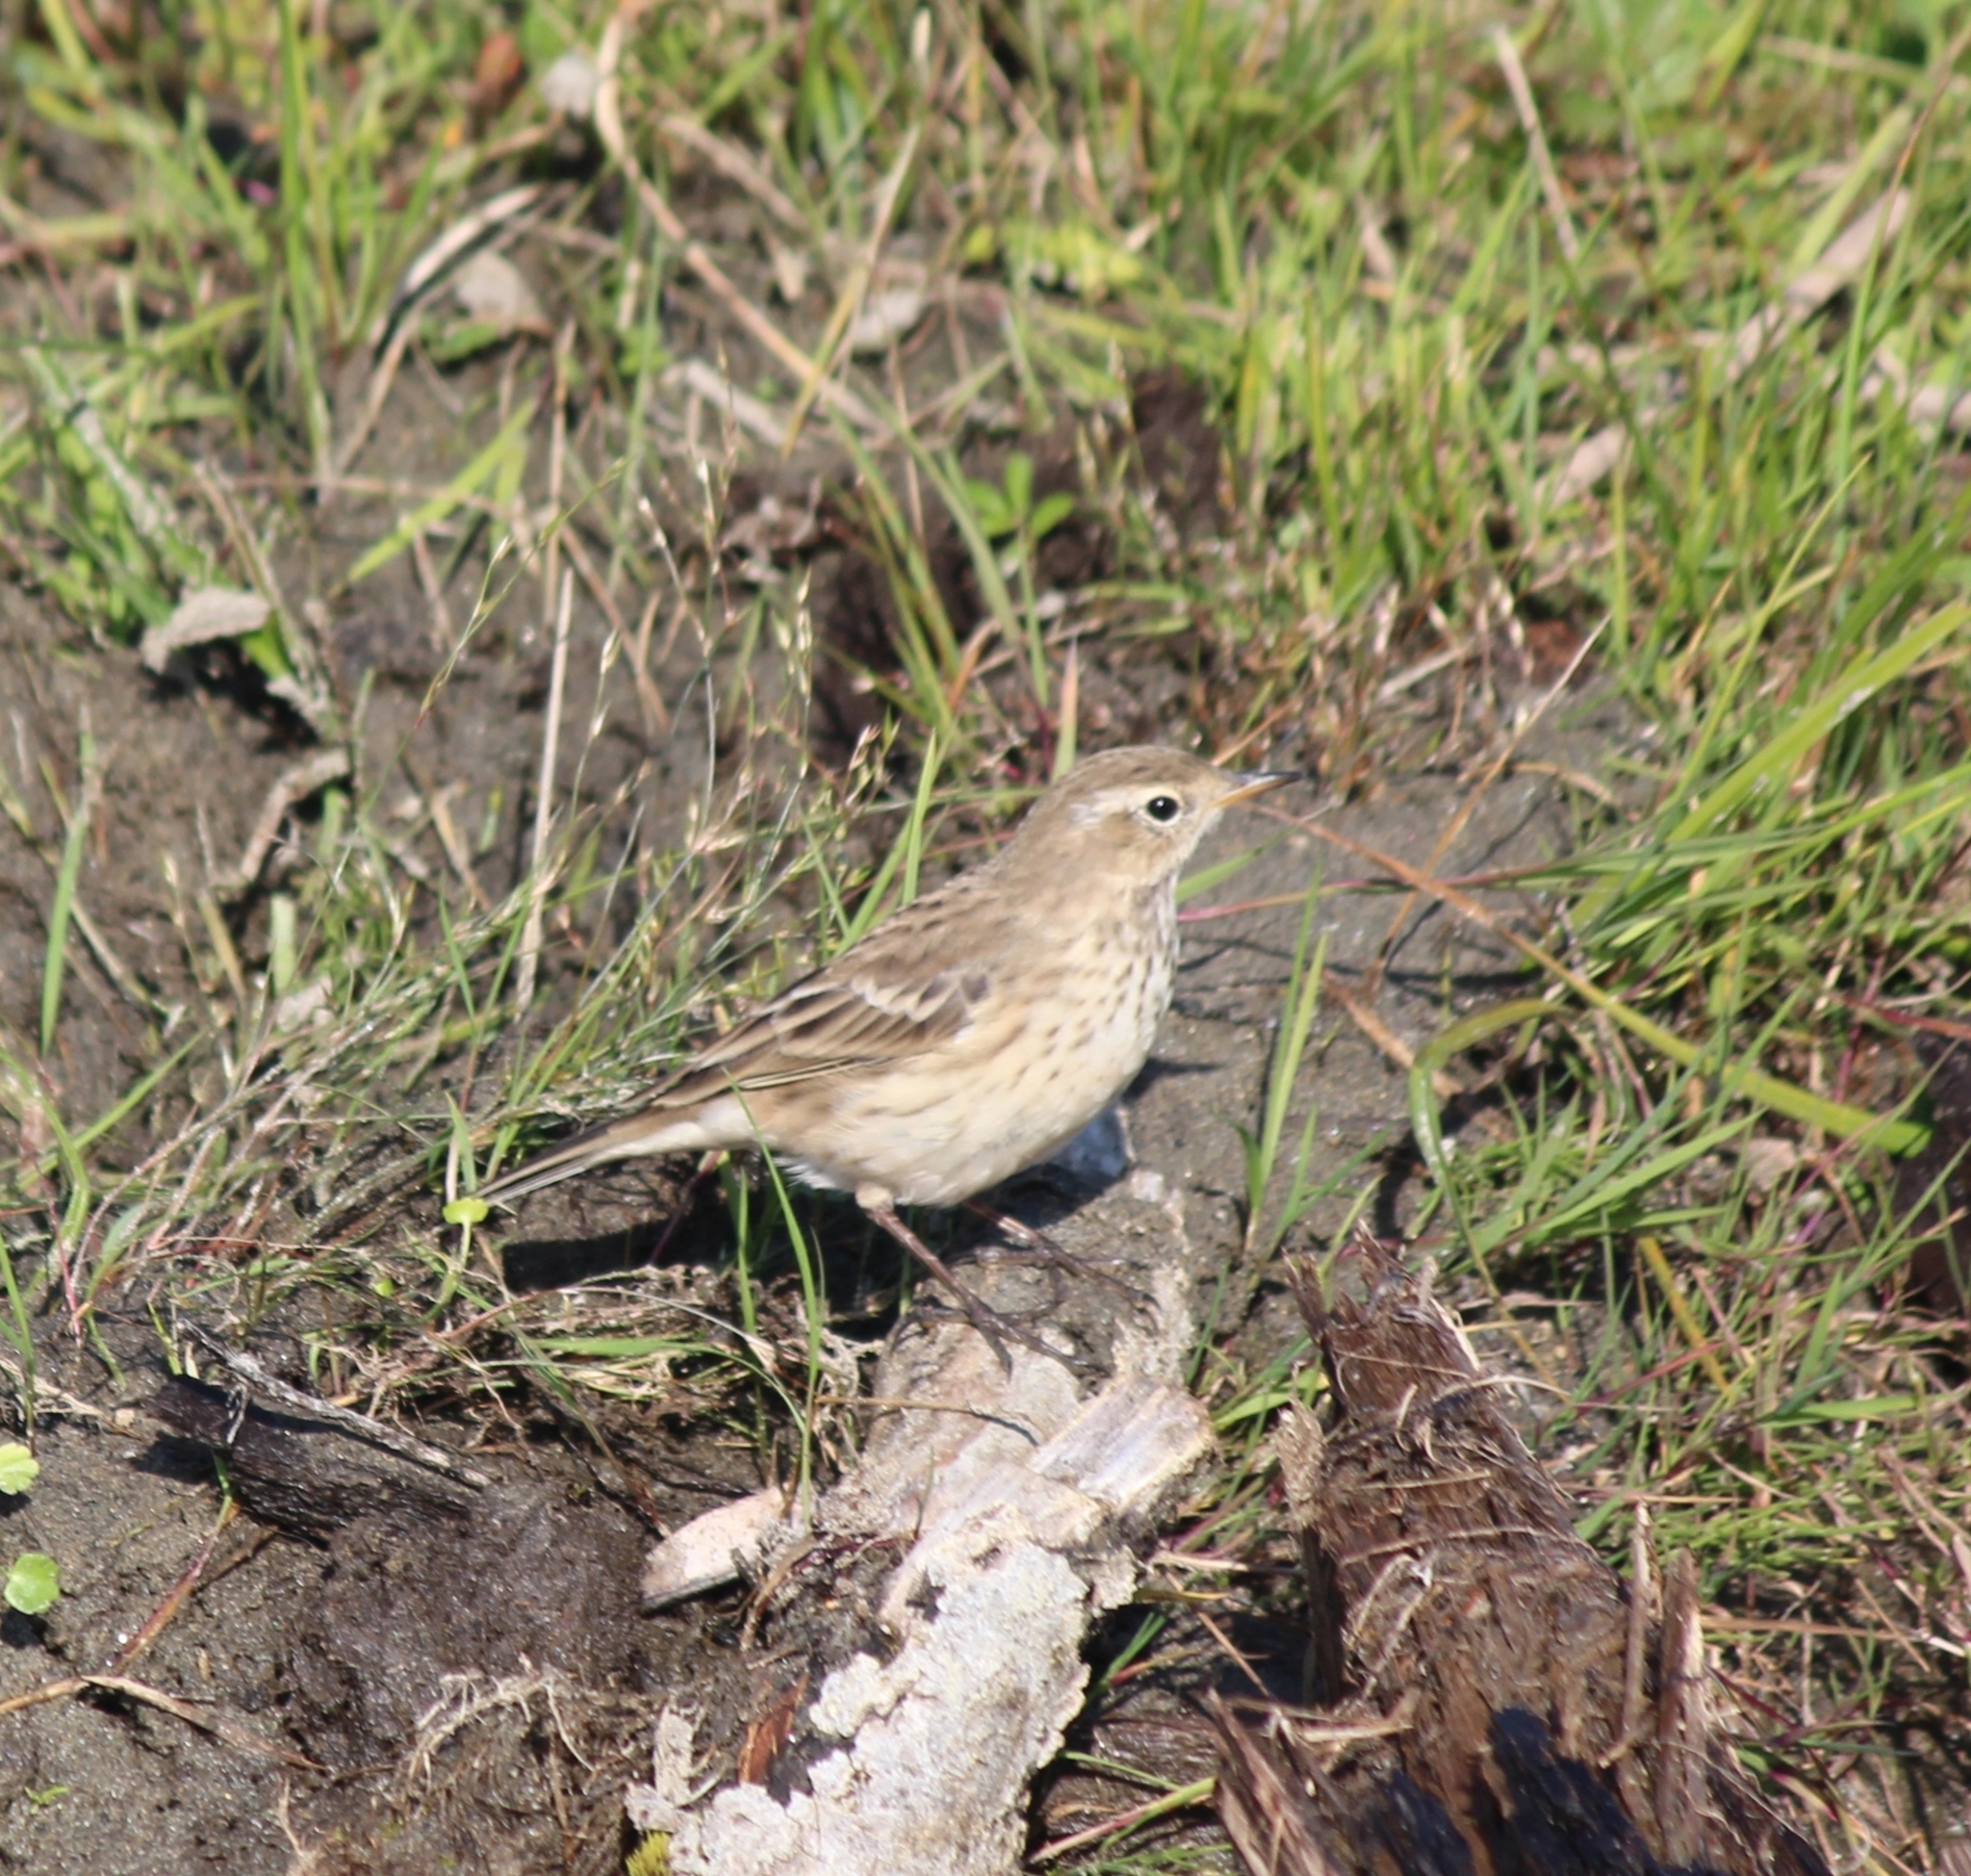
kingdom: Animalia
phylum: Chordata
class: Aves
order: Passeriformes
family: Motacillidae
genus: Anthus
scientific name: Anthus spinoletta
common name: Water pipit
